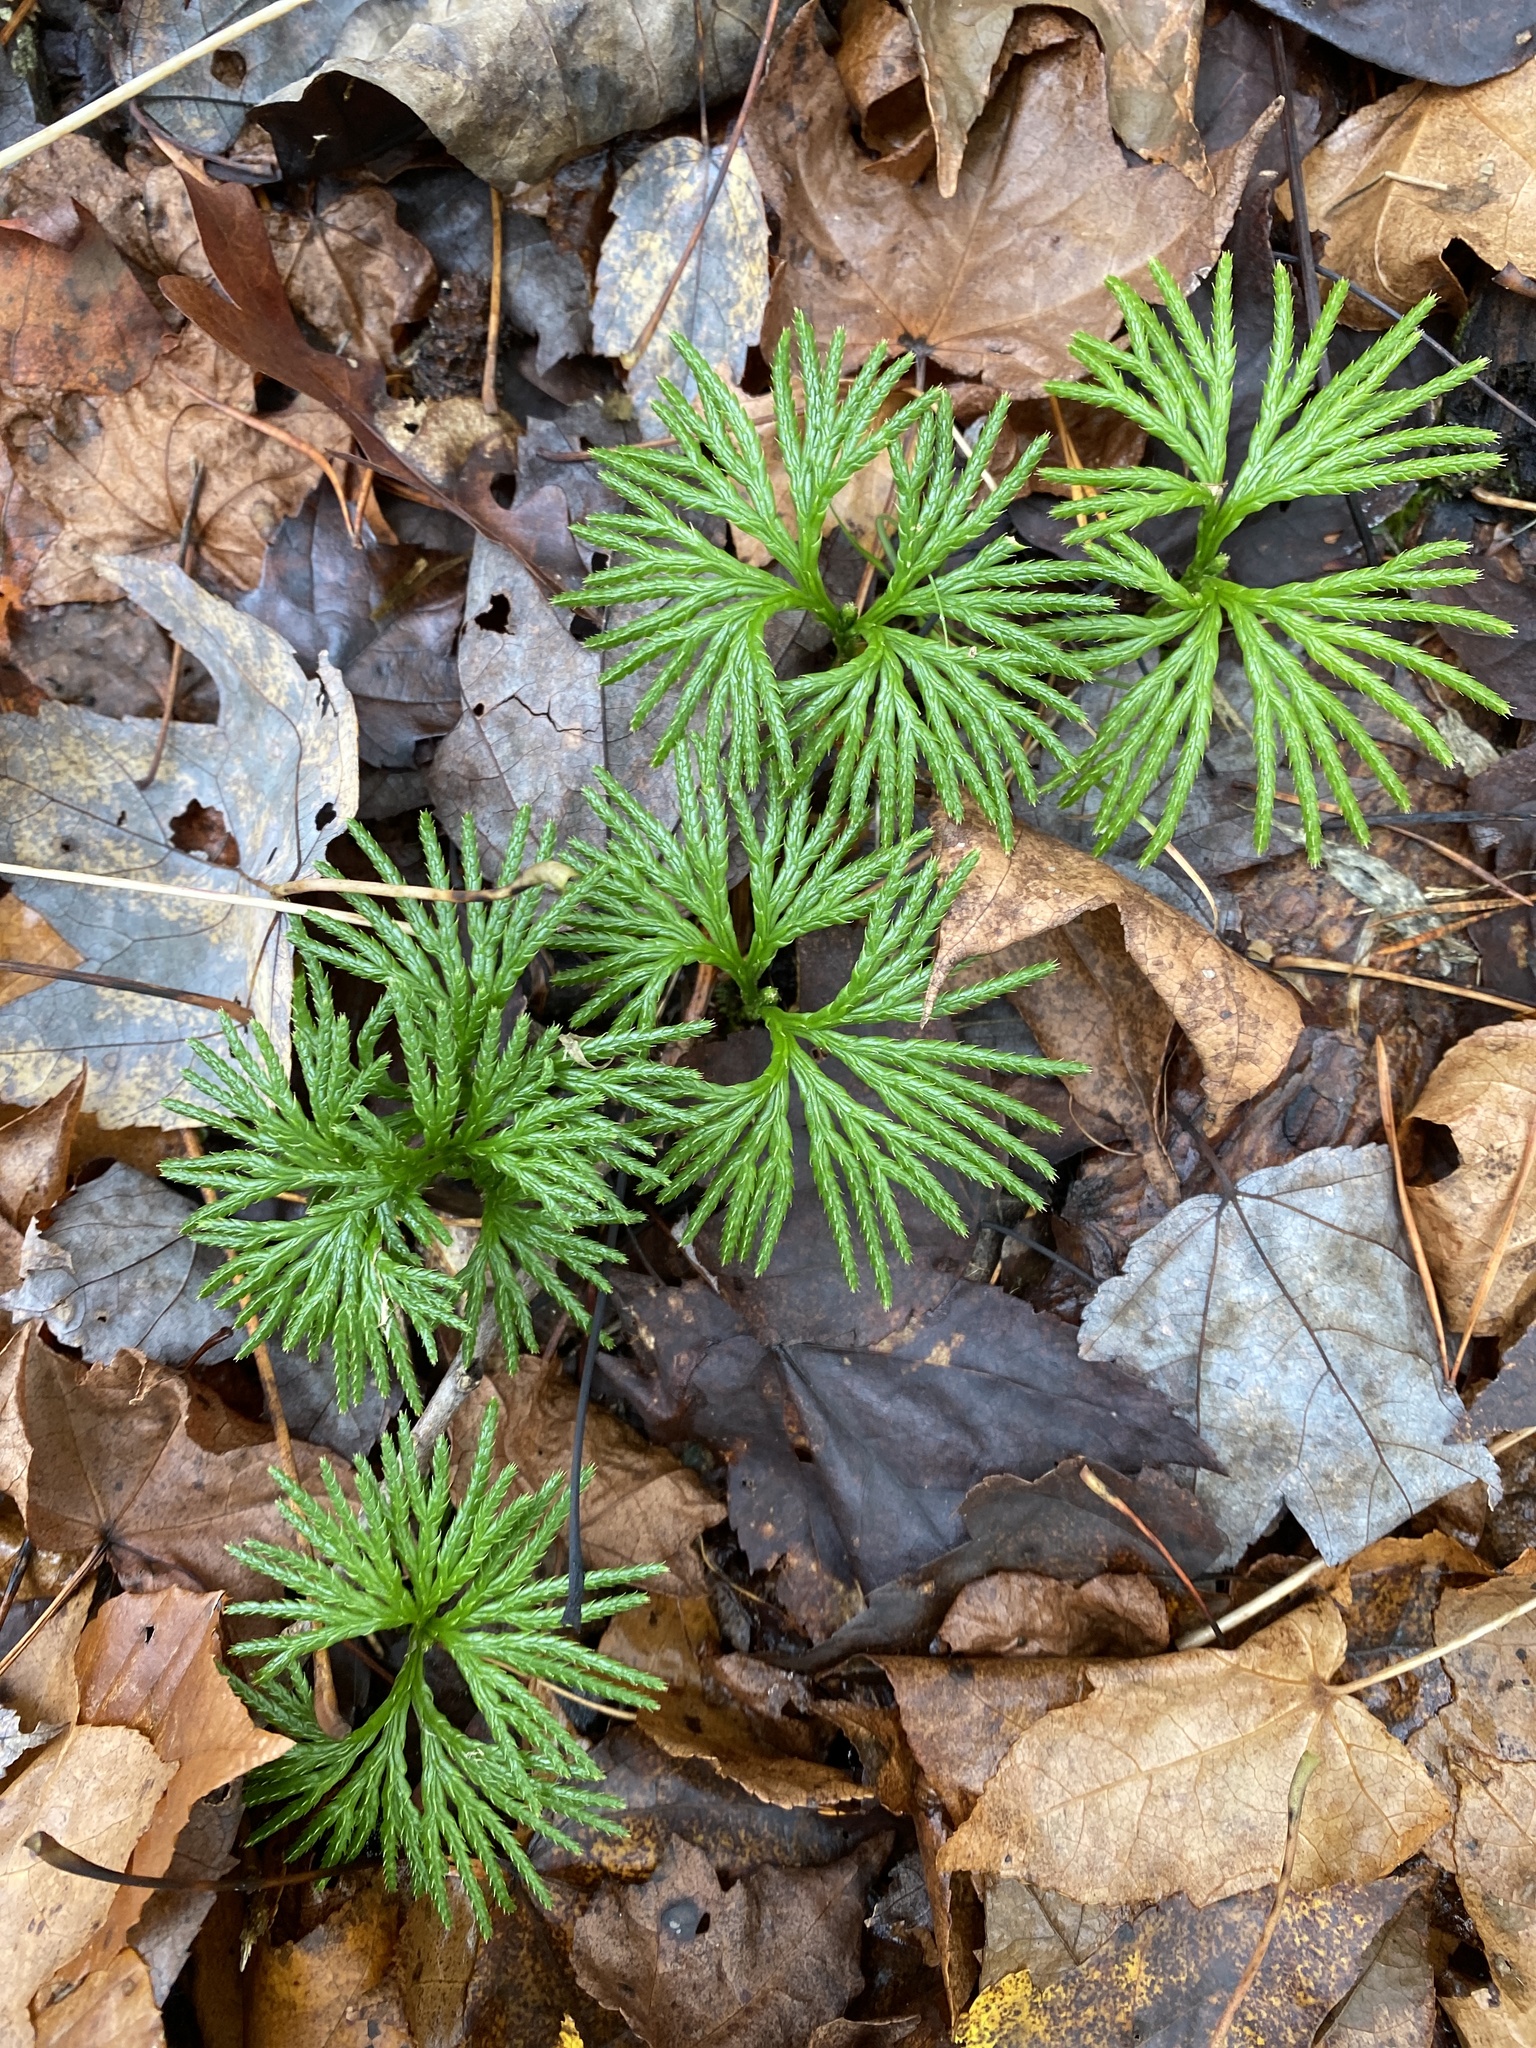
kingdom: Plantae
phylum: Tracheophyta
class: Lycopodiopsida
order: Lycopodiales
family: Lycopodiaceae
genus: Diphasiastrum
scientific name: Diphasiastrum digitatum
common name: Southern running-pine
